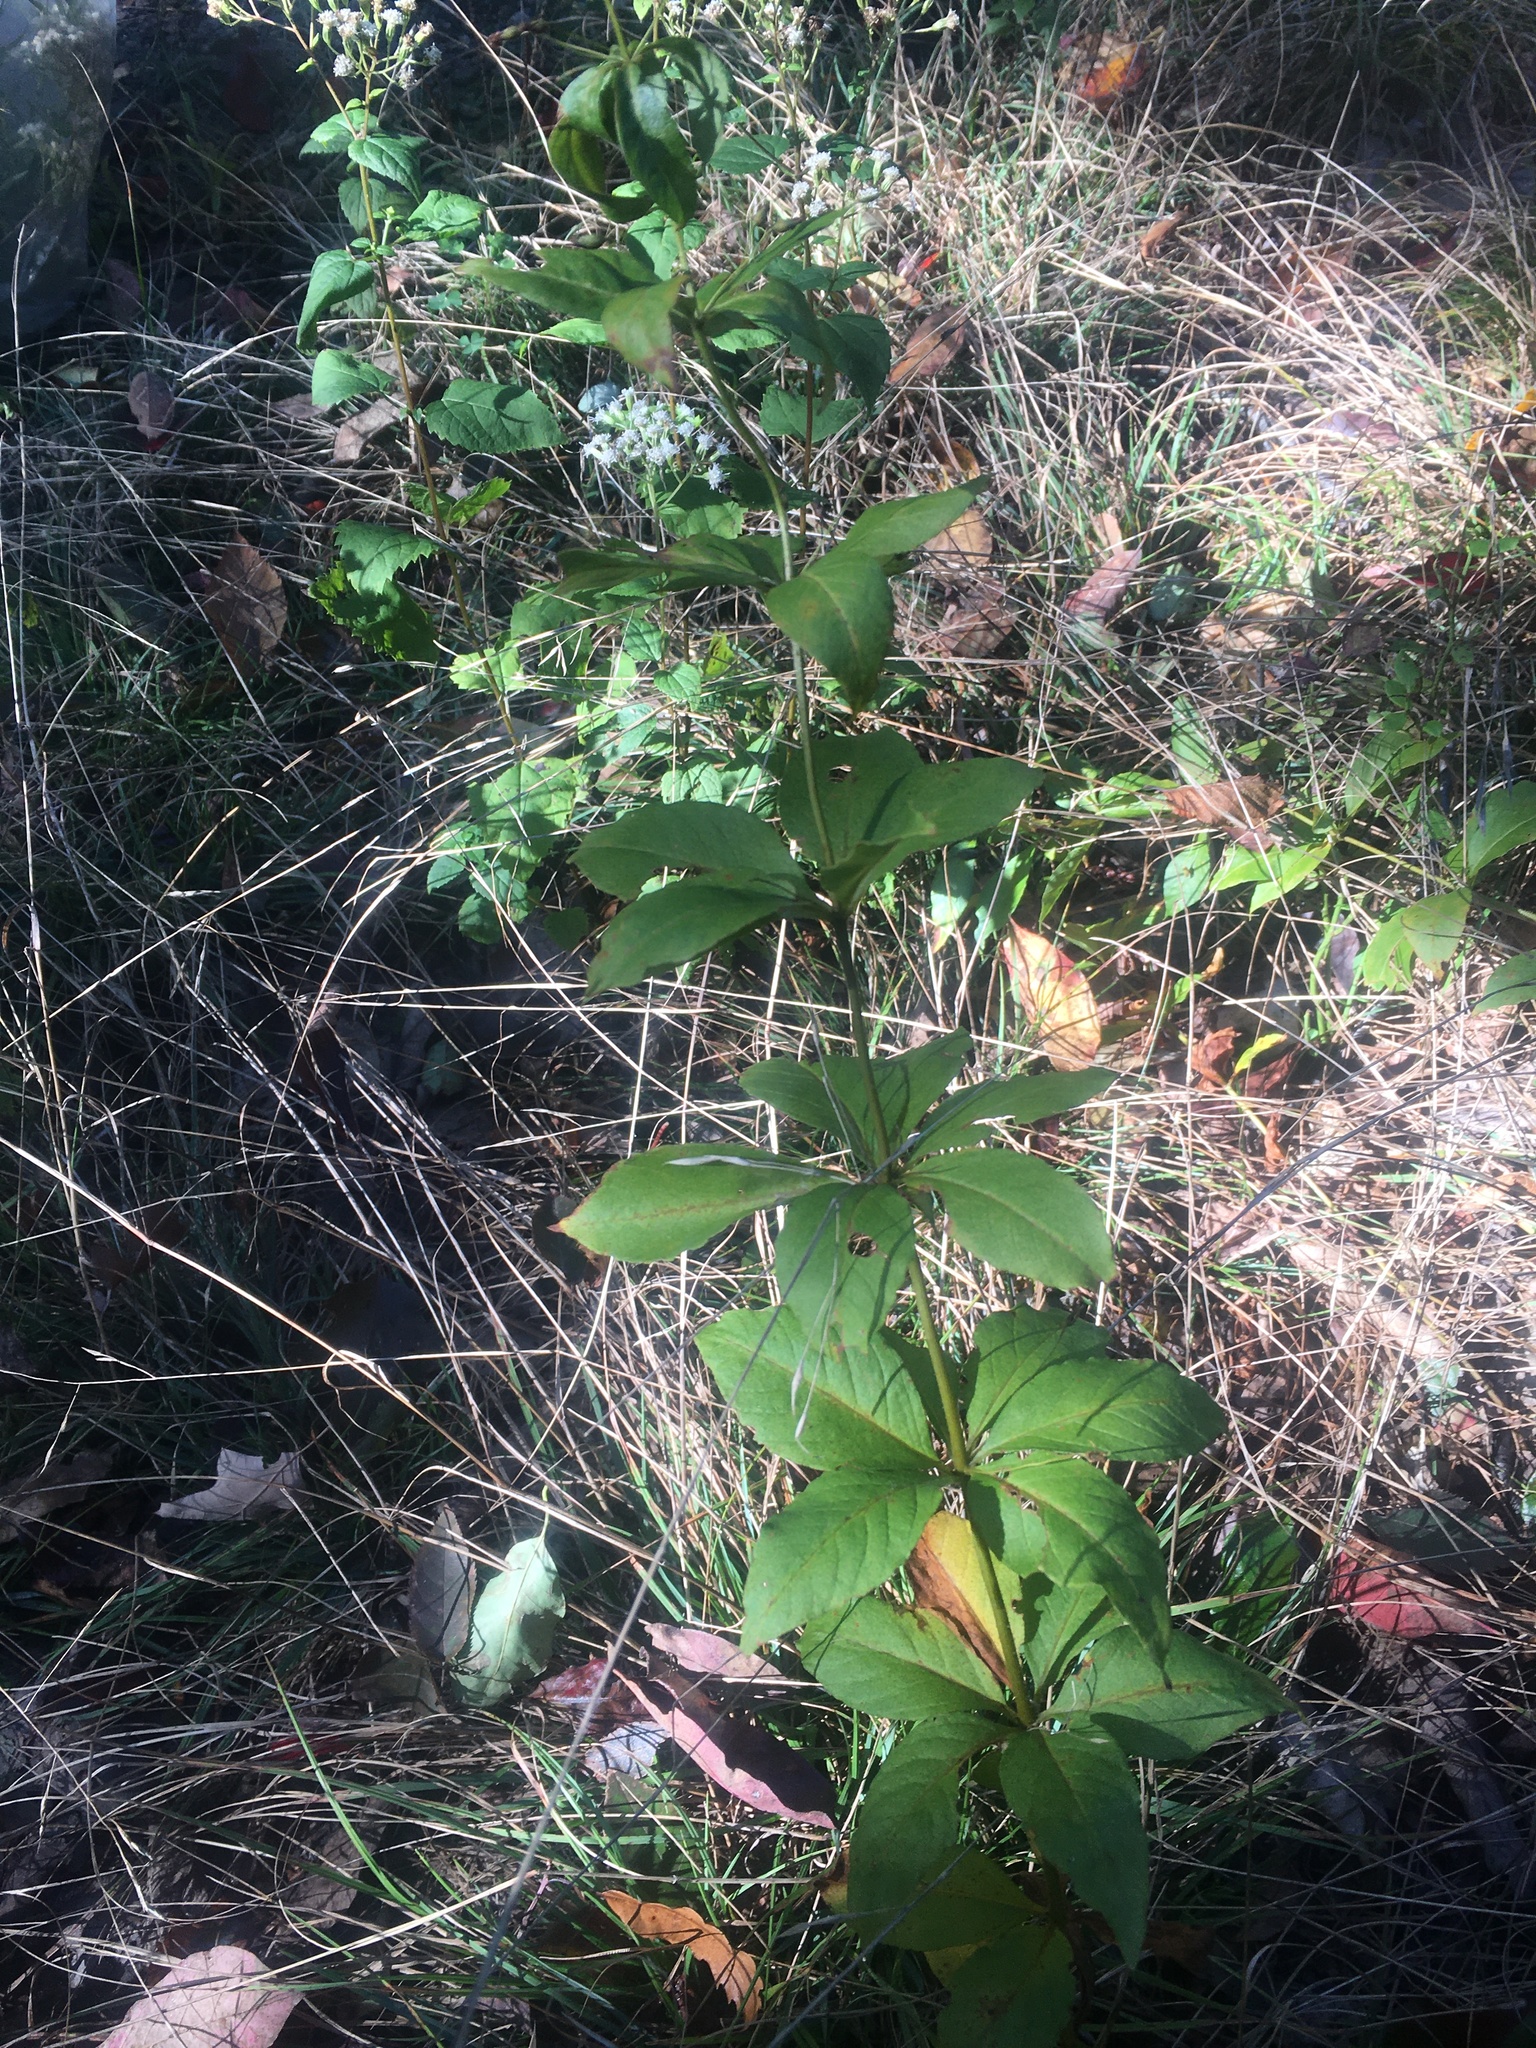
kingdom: Plantae
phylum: Tracheophyta
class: Magnoliopsida
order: Ericales
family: Primulaceae
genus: Lysimachia
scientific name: Lysimachia quadrifolia
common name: Whorled loosestrife
